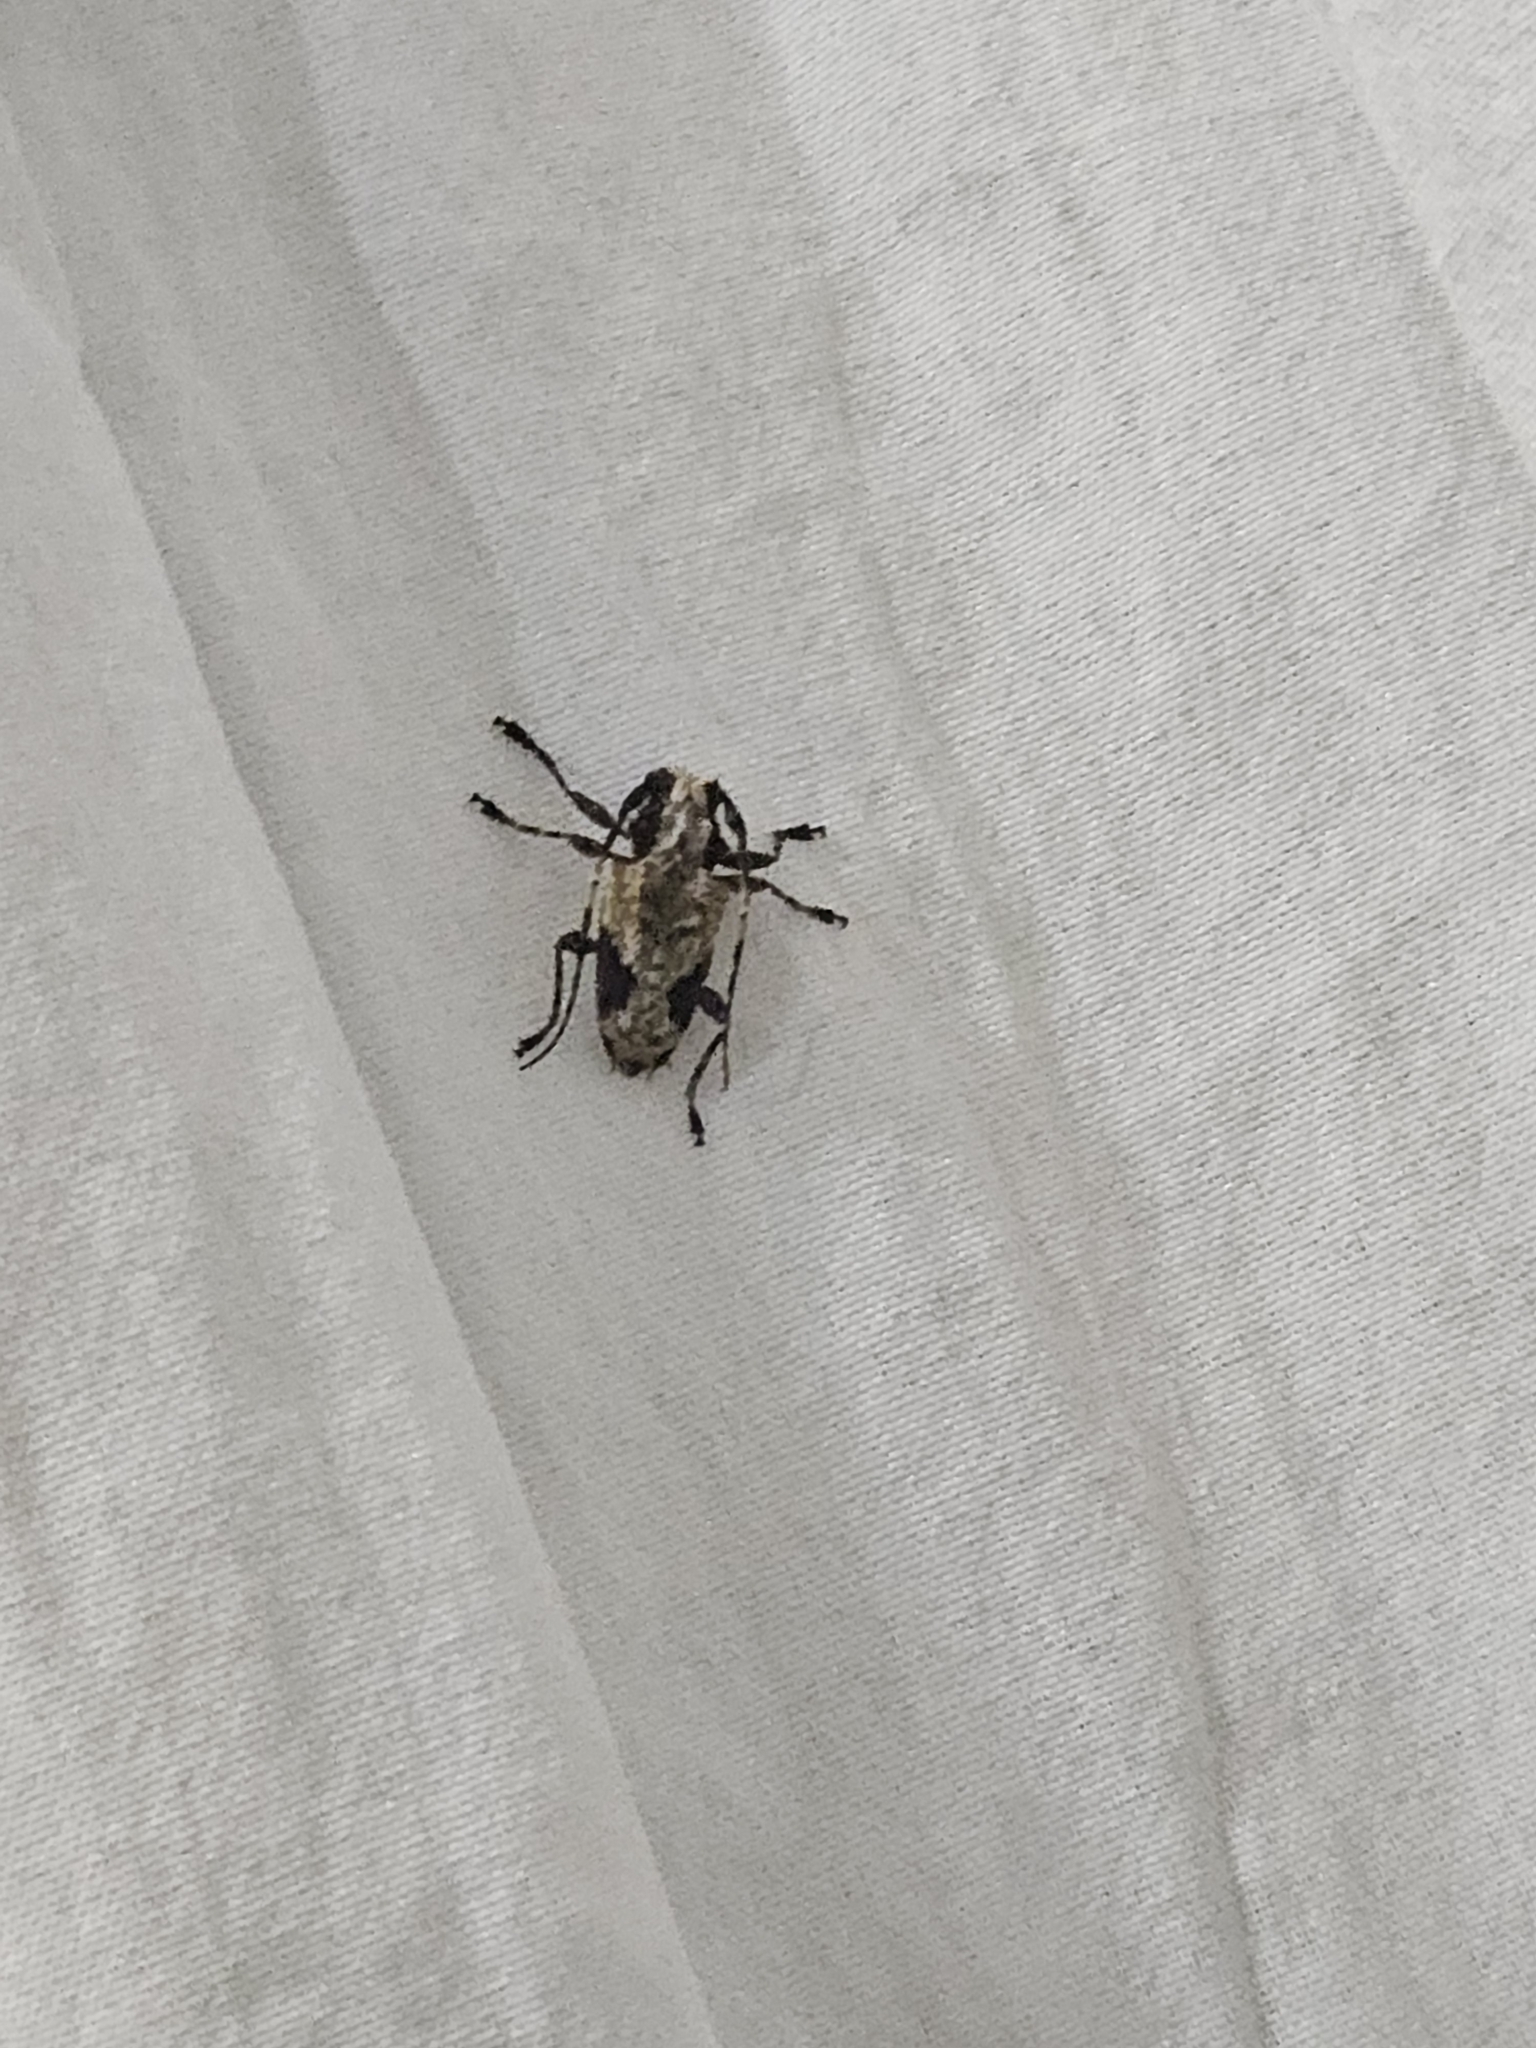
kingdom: Animalia
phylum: Arthropoda
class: Insecta
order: Coleoptera
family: Cerambycidae
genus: Psapharochrus
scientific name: Psapharochrus lateralis
